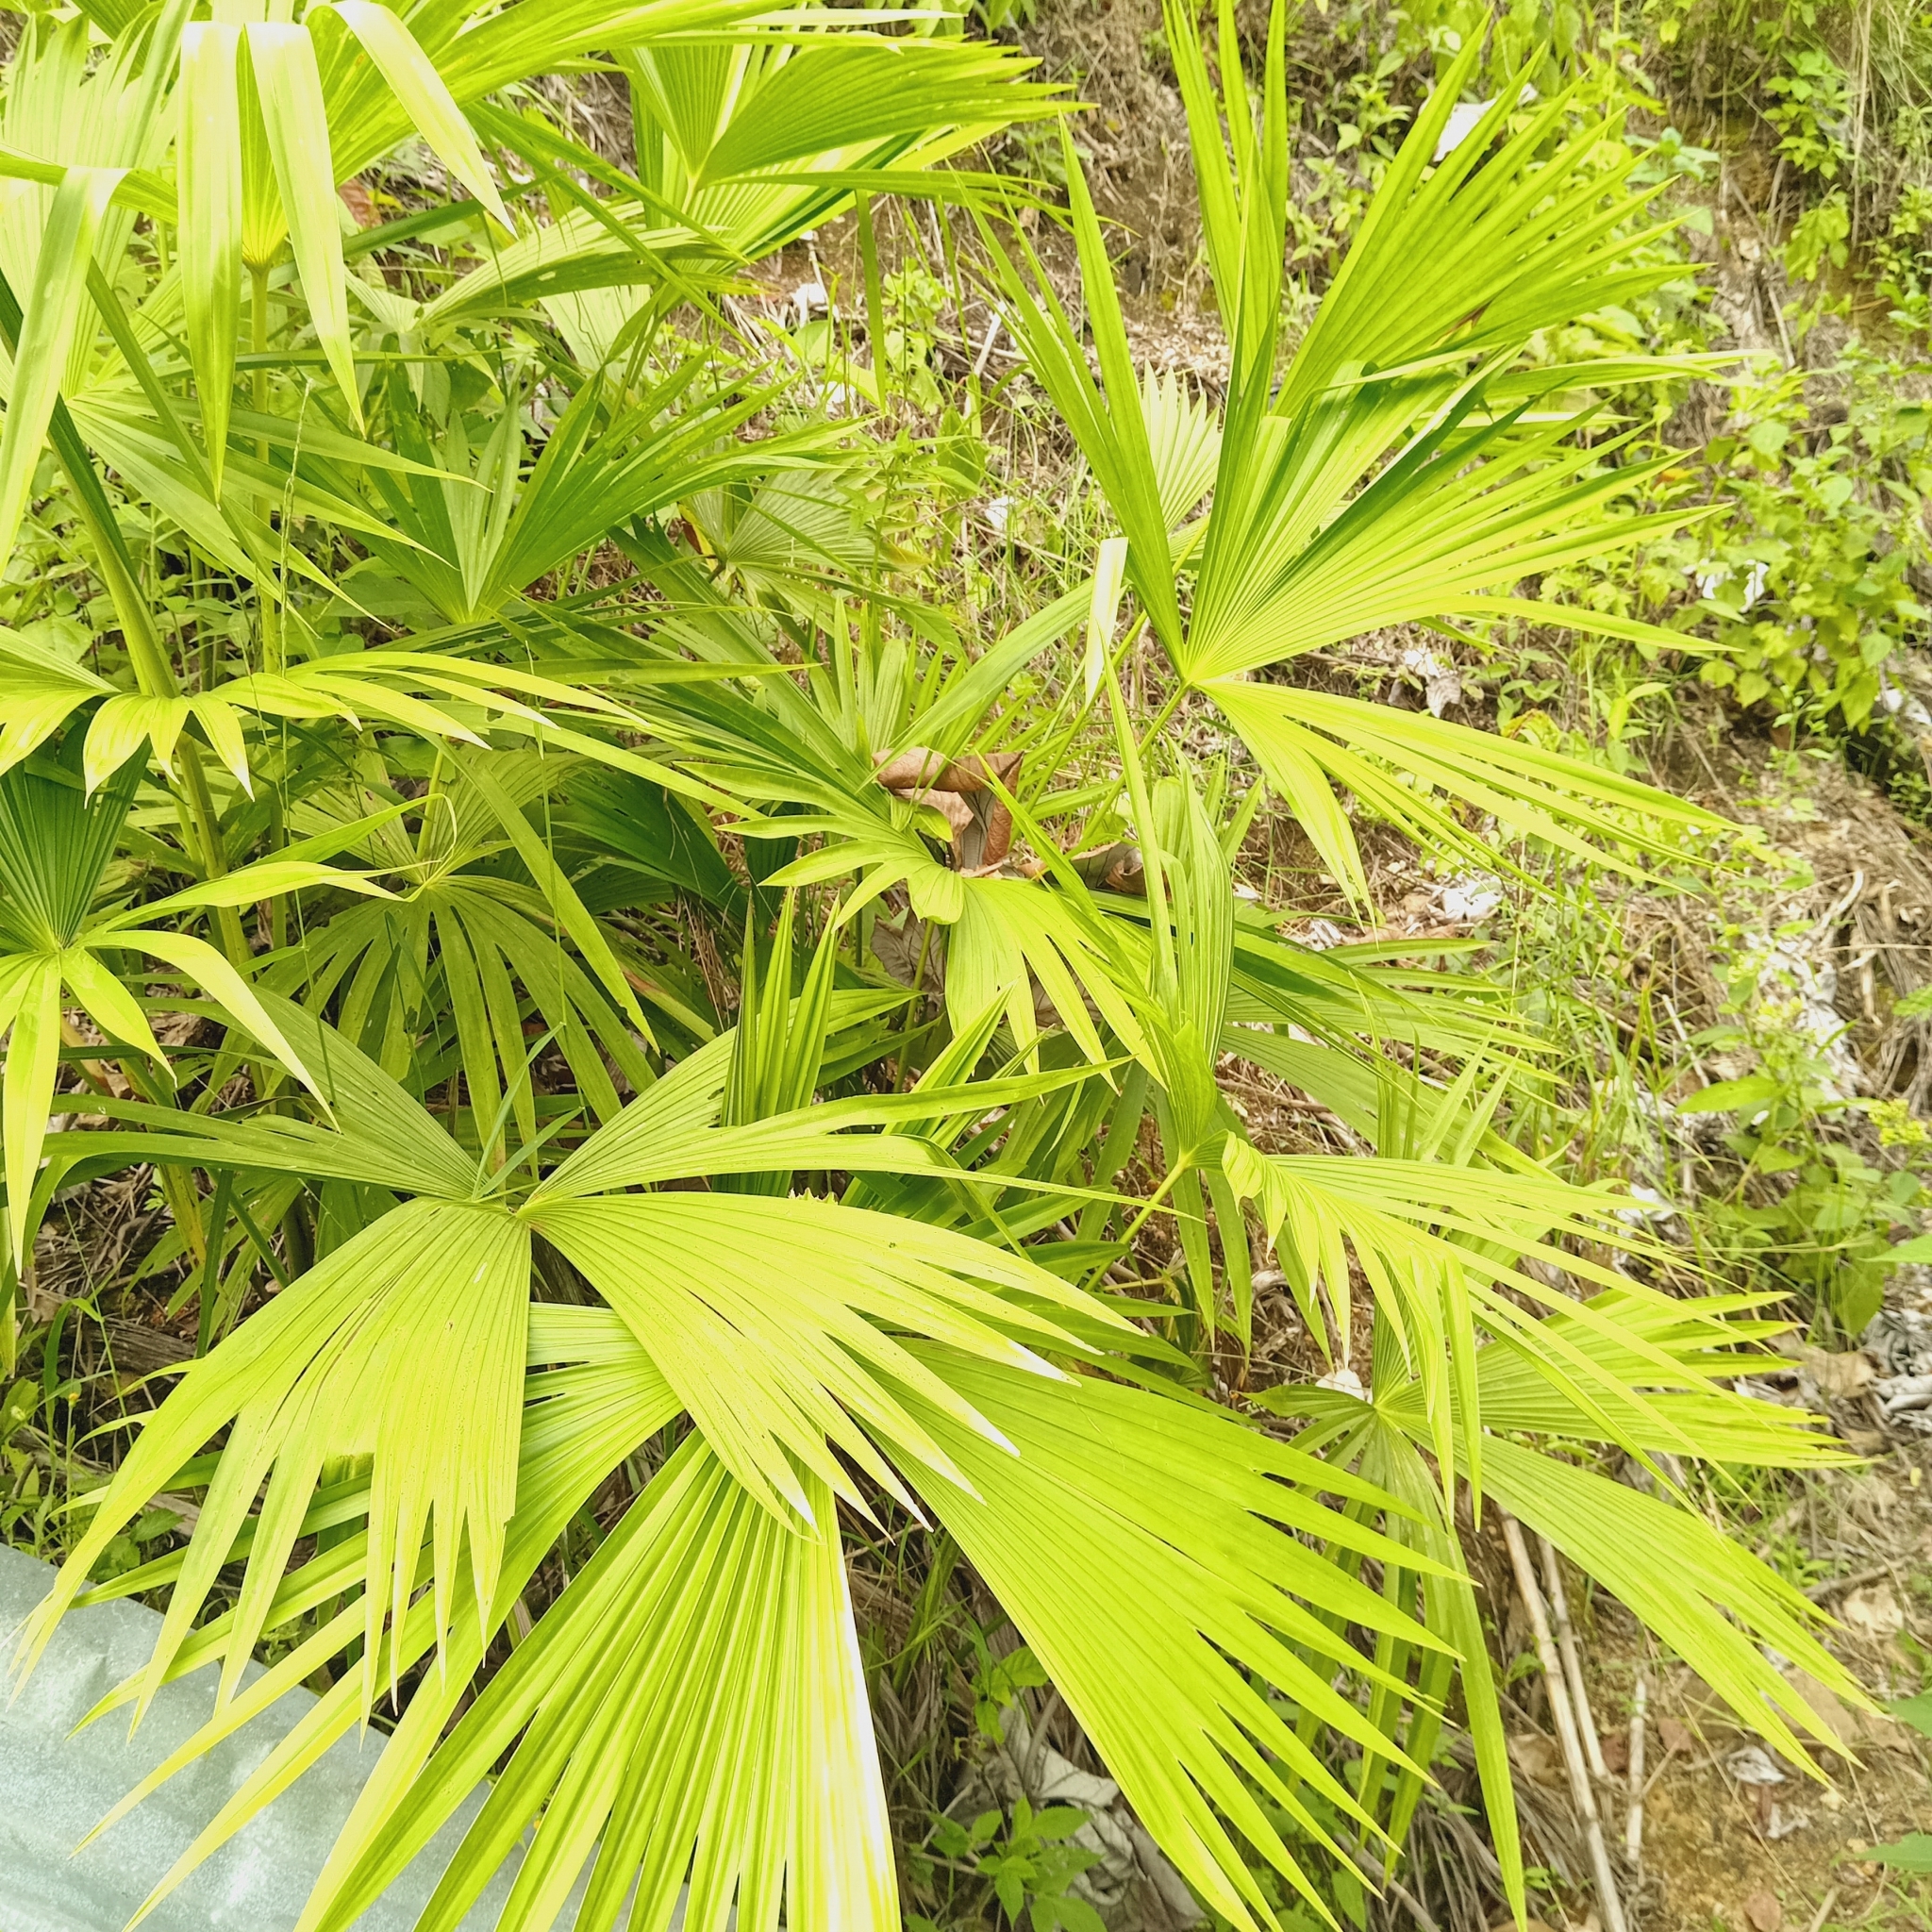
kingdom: Plantae
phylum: Tracheophyta
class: Liliopsida
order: Pandanales
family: Cyclanthaceae
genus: Carludovica
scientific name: Carludovica palmata
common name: Panama hat plant
